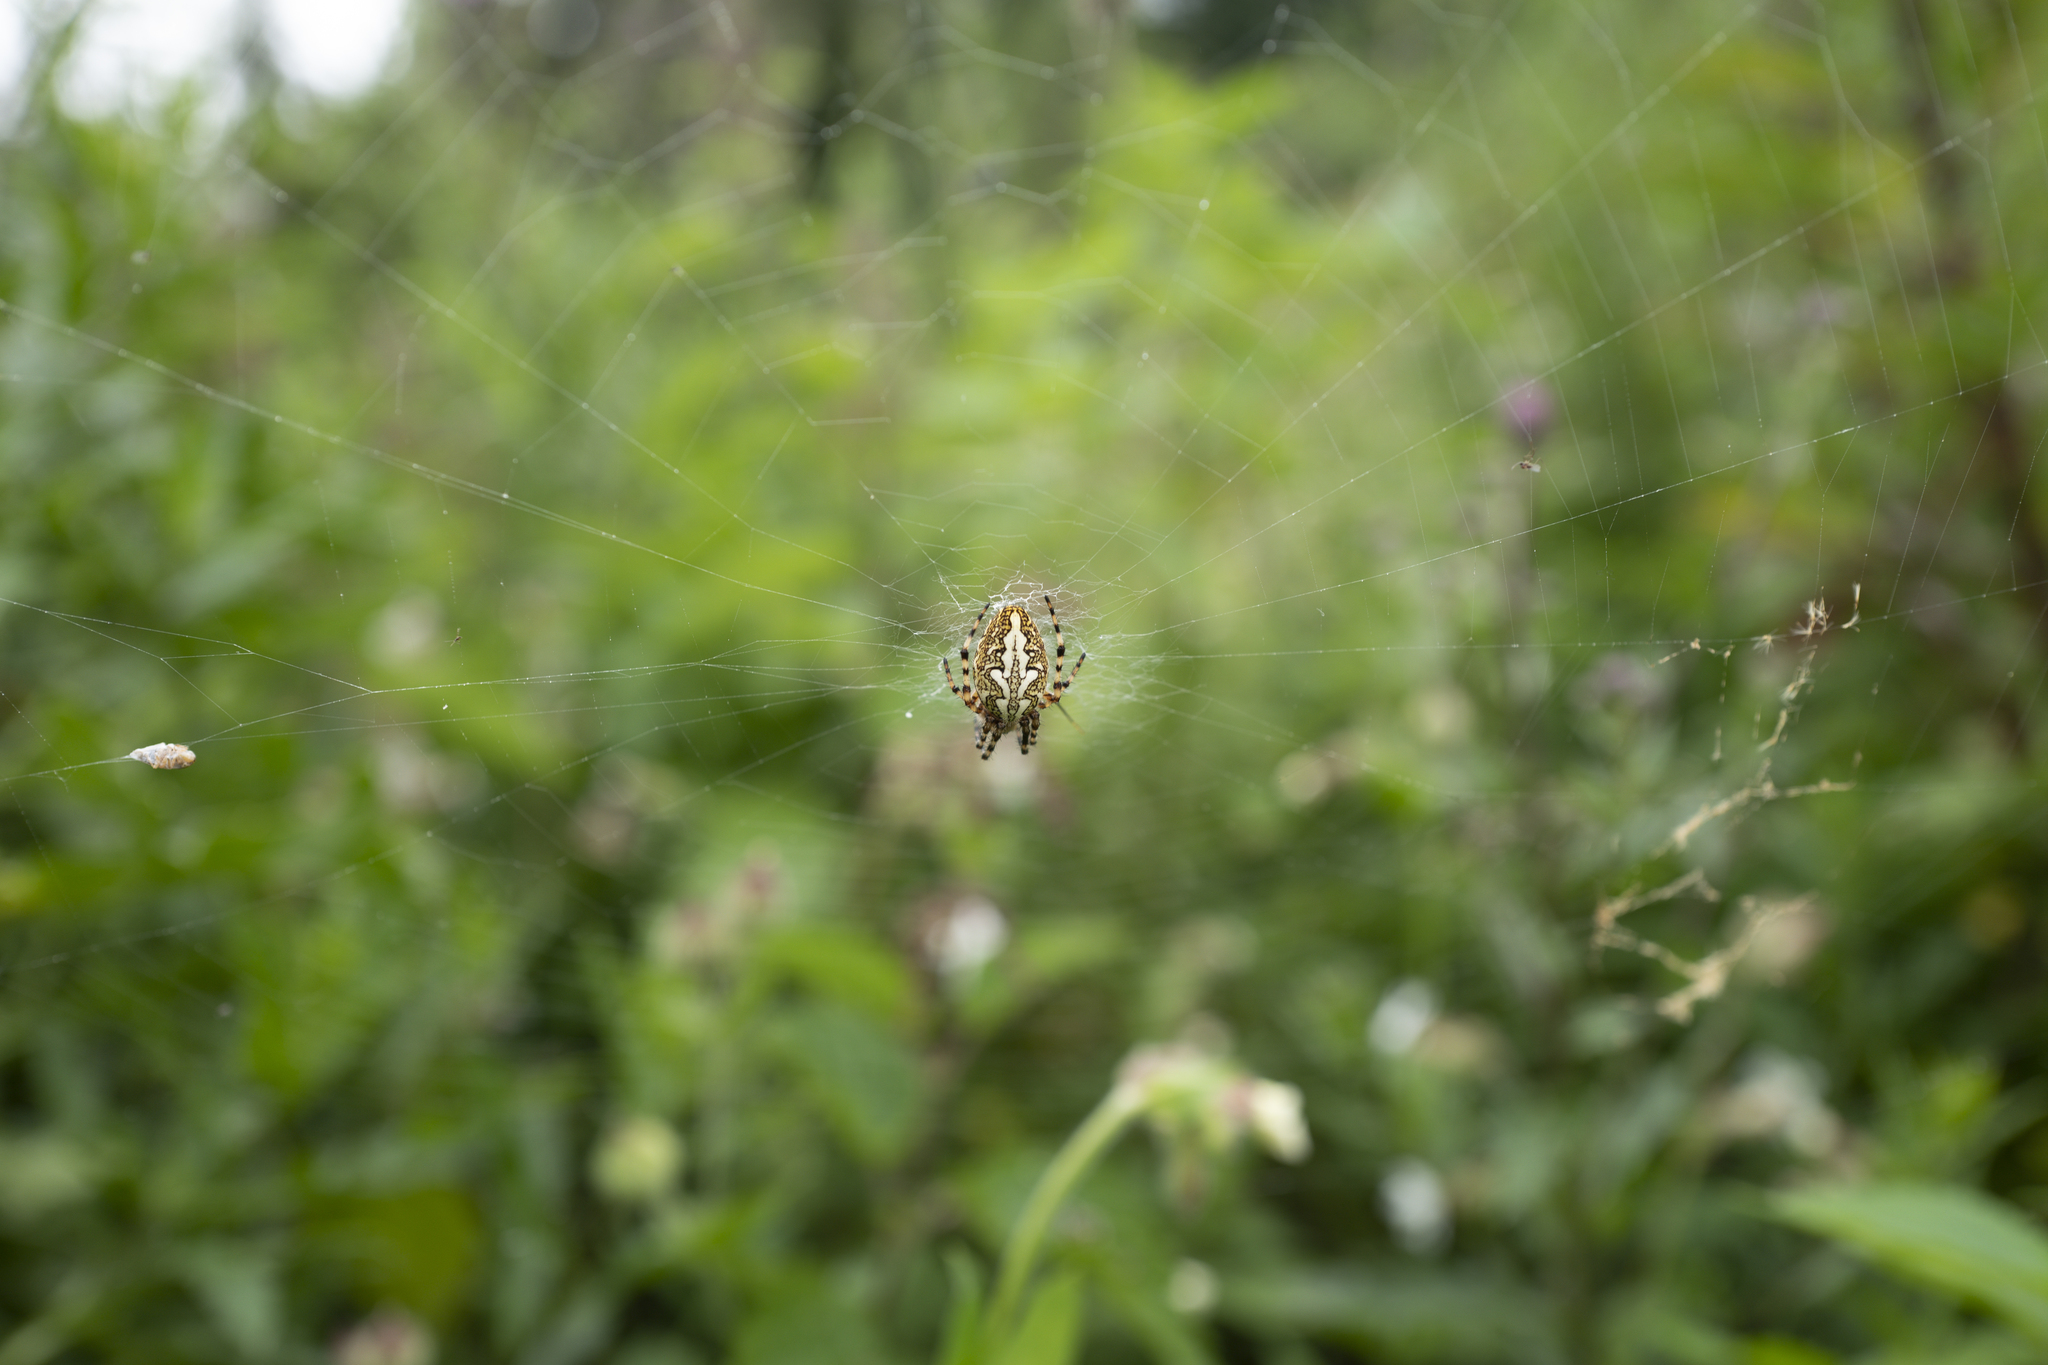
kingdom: Animalia
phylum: Arthropoda
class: Arachnida
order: Araneae
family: Araneidae
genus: Aculepeira
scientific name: Aculepeira ceropegia
